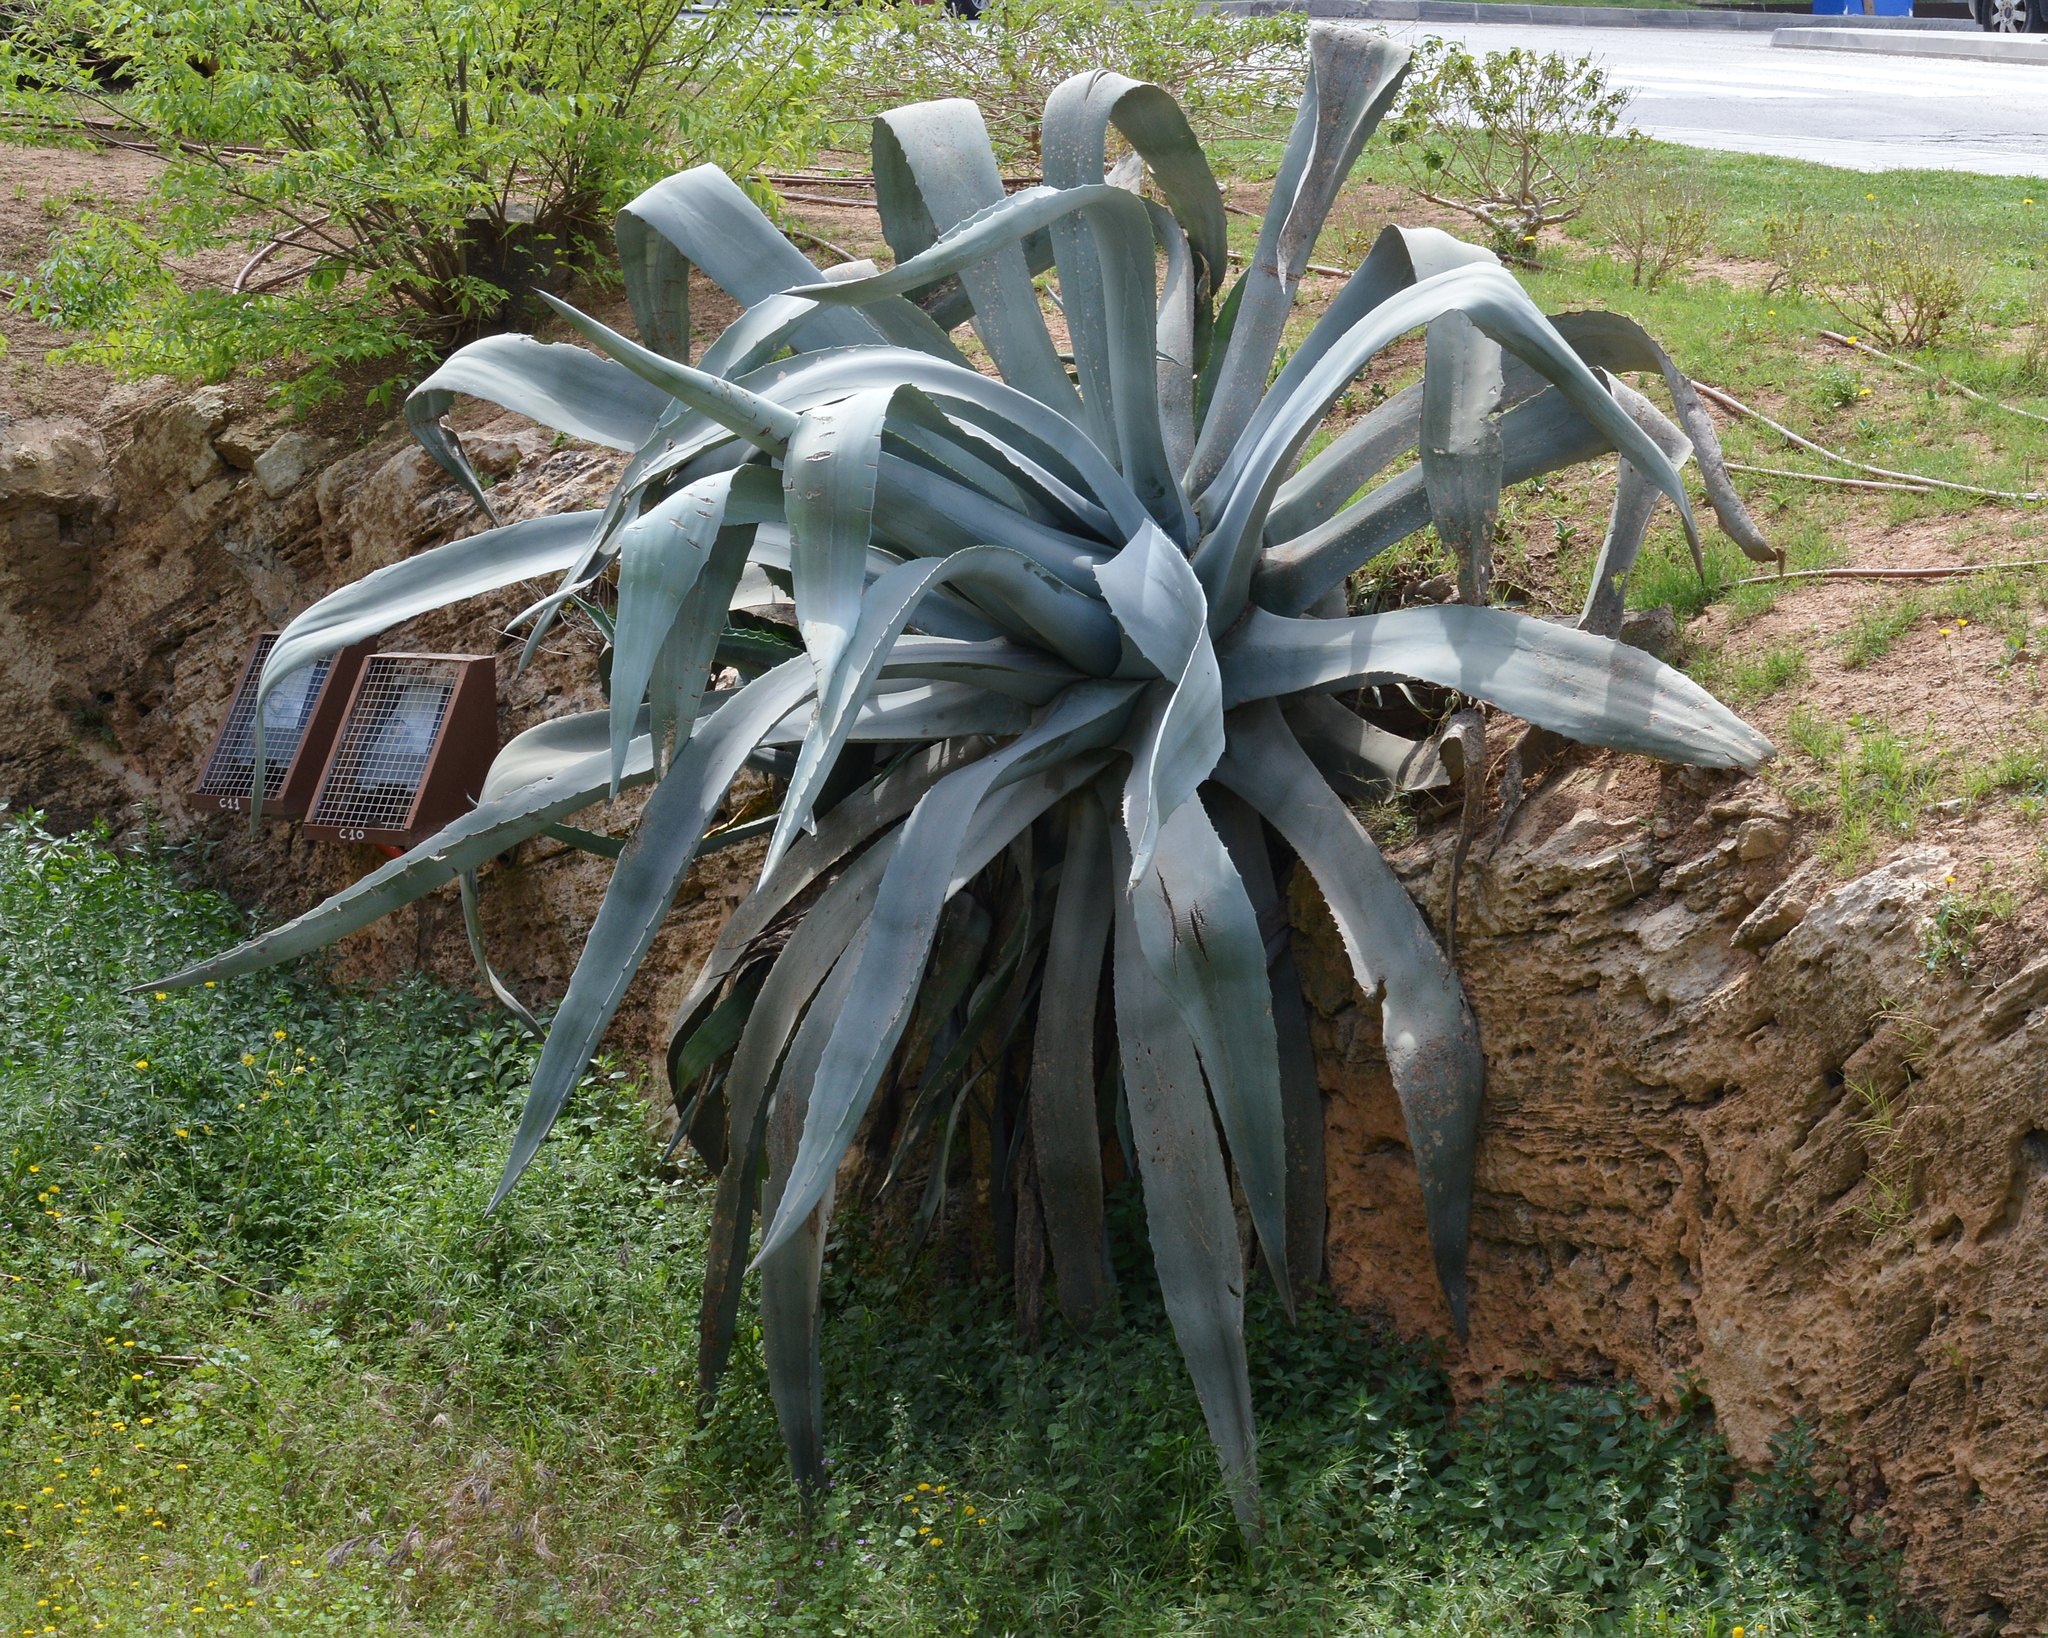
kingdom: Plantae
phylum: Tracheophyta
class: Liliopsida
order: Asparagales
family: Asparagaceae
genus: Agave
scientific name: Agave americana
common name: Centuryplant
